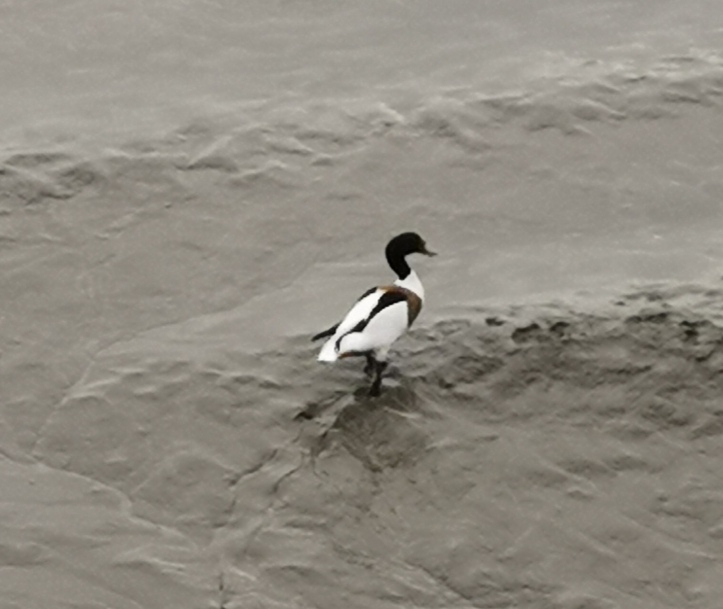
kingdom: Animalia
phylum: Chordata
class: Aves
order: Anseriformes
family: Anatidae
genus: Tadorna
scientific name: Tadorna tadorna
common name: Common shelduck
